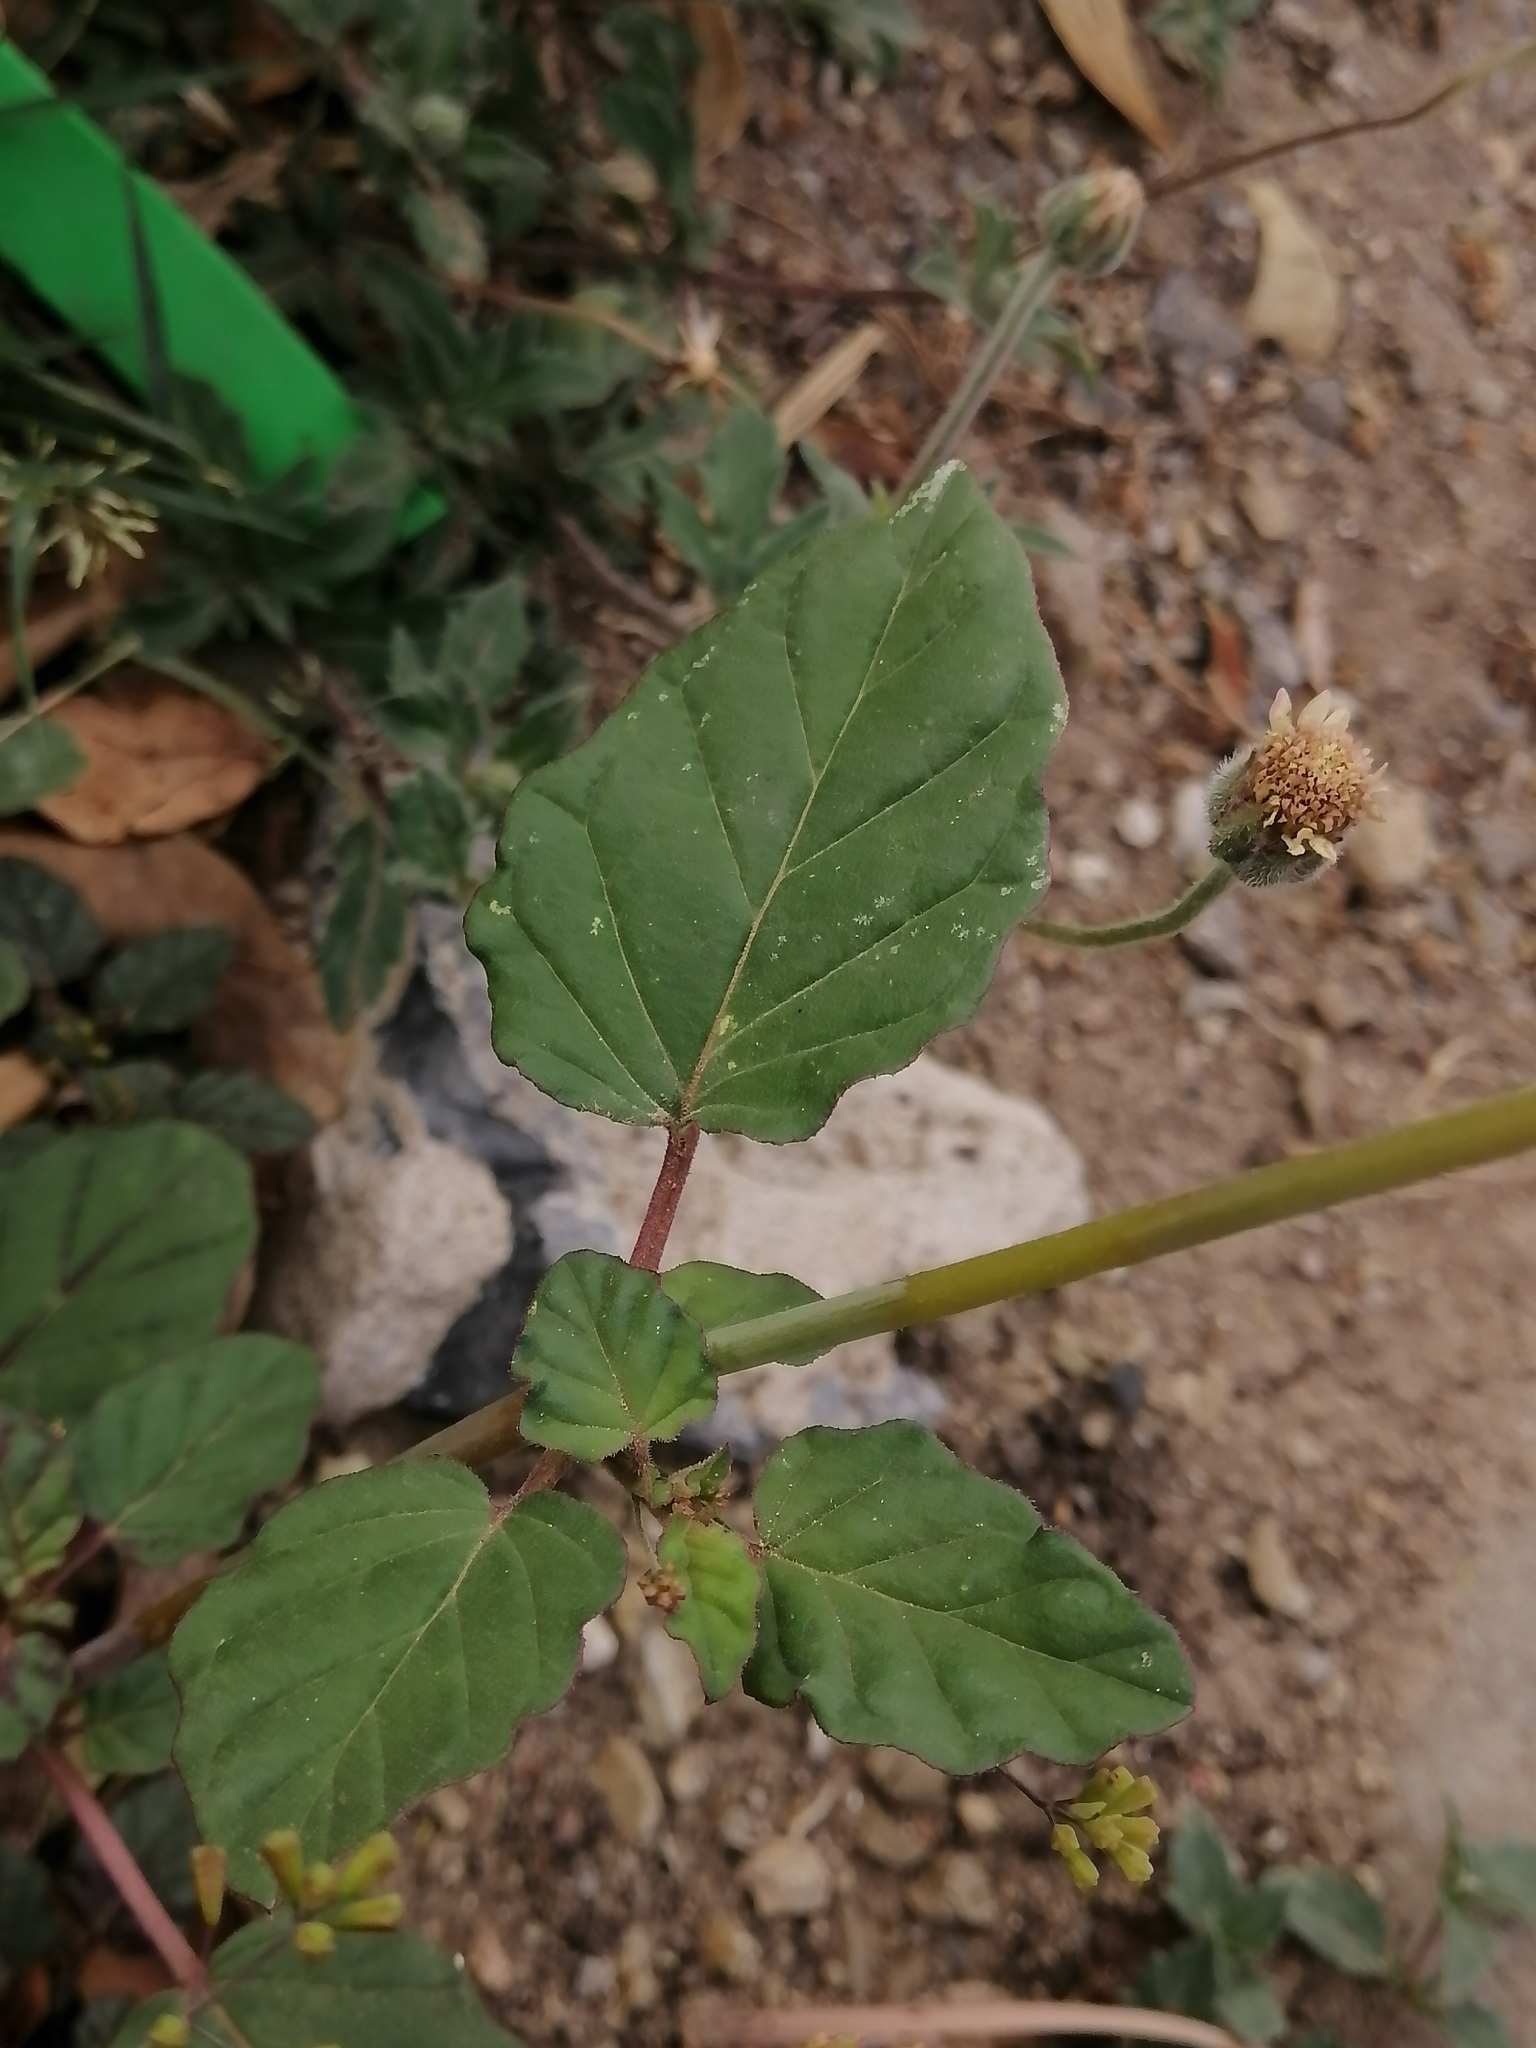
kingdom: Plantae
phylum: Tracheophyta
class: Magnoliopsida
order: Caryophyllales
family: Nyctaginaceae
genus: Boerhavia
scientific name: Boerhavia erecta
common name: Erect spiderling
